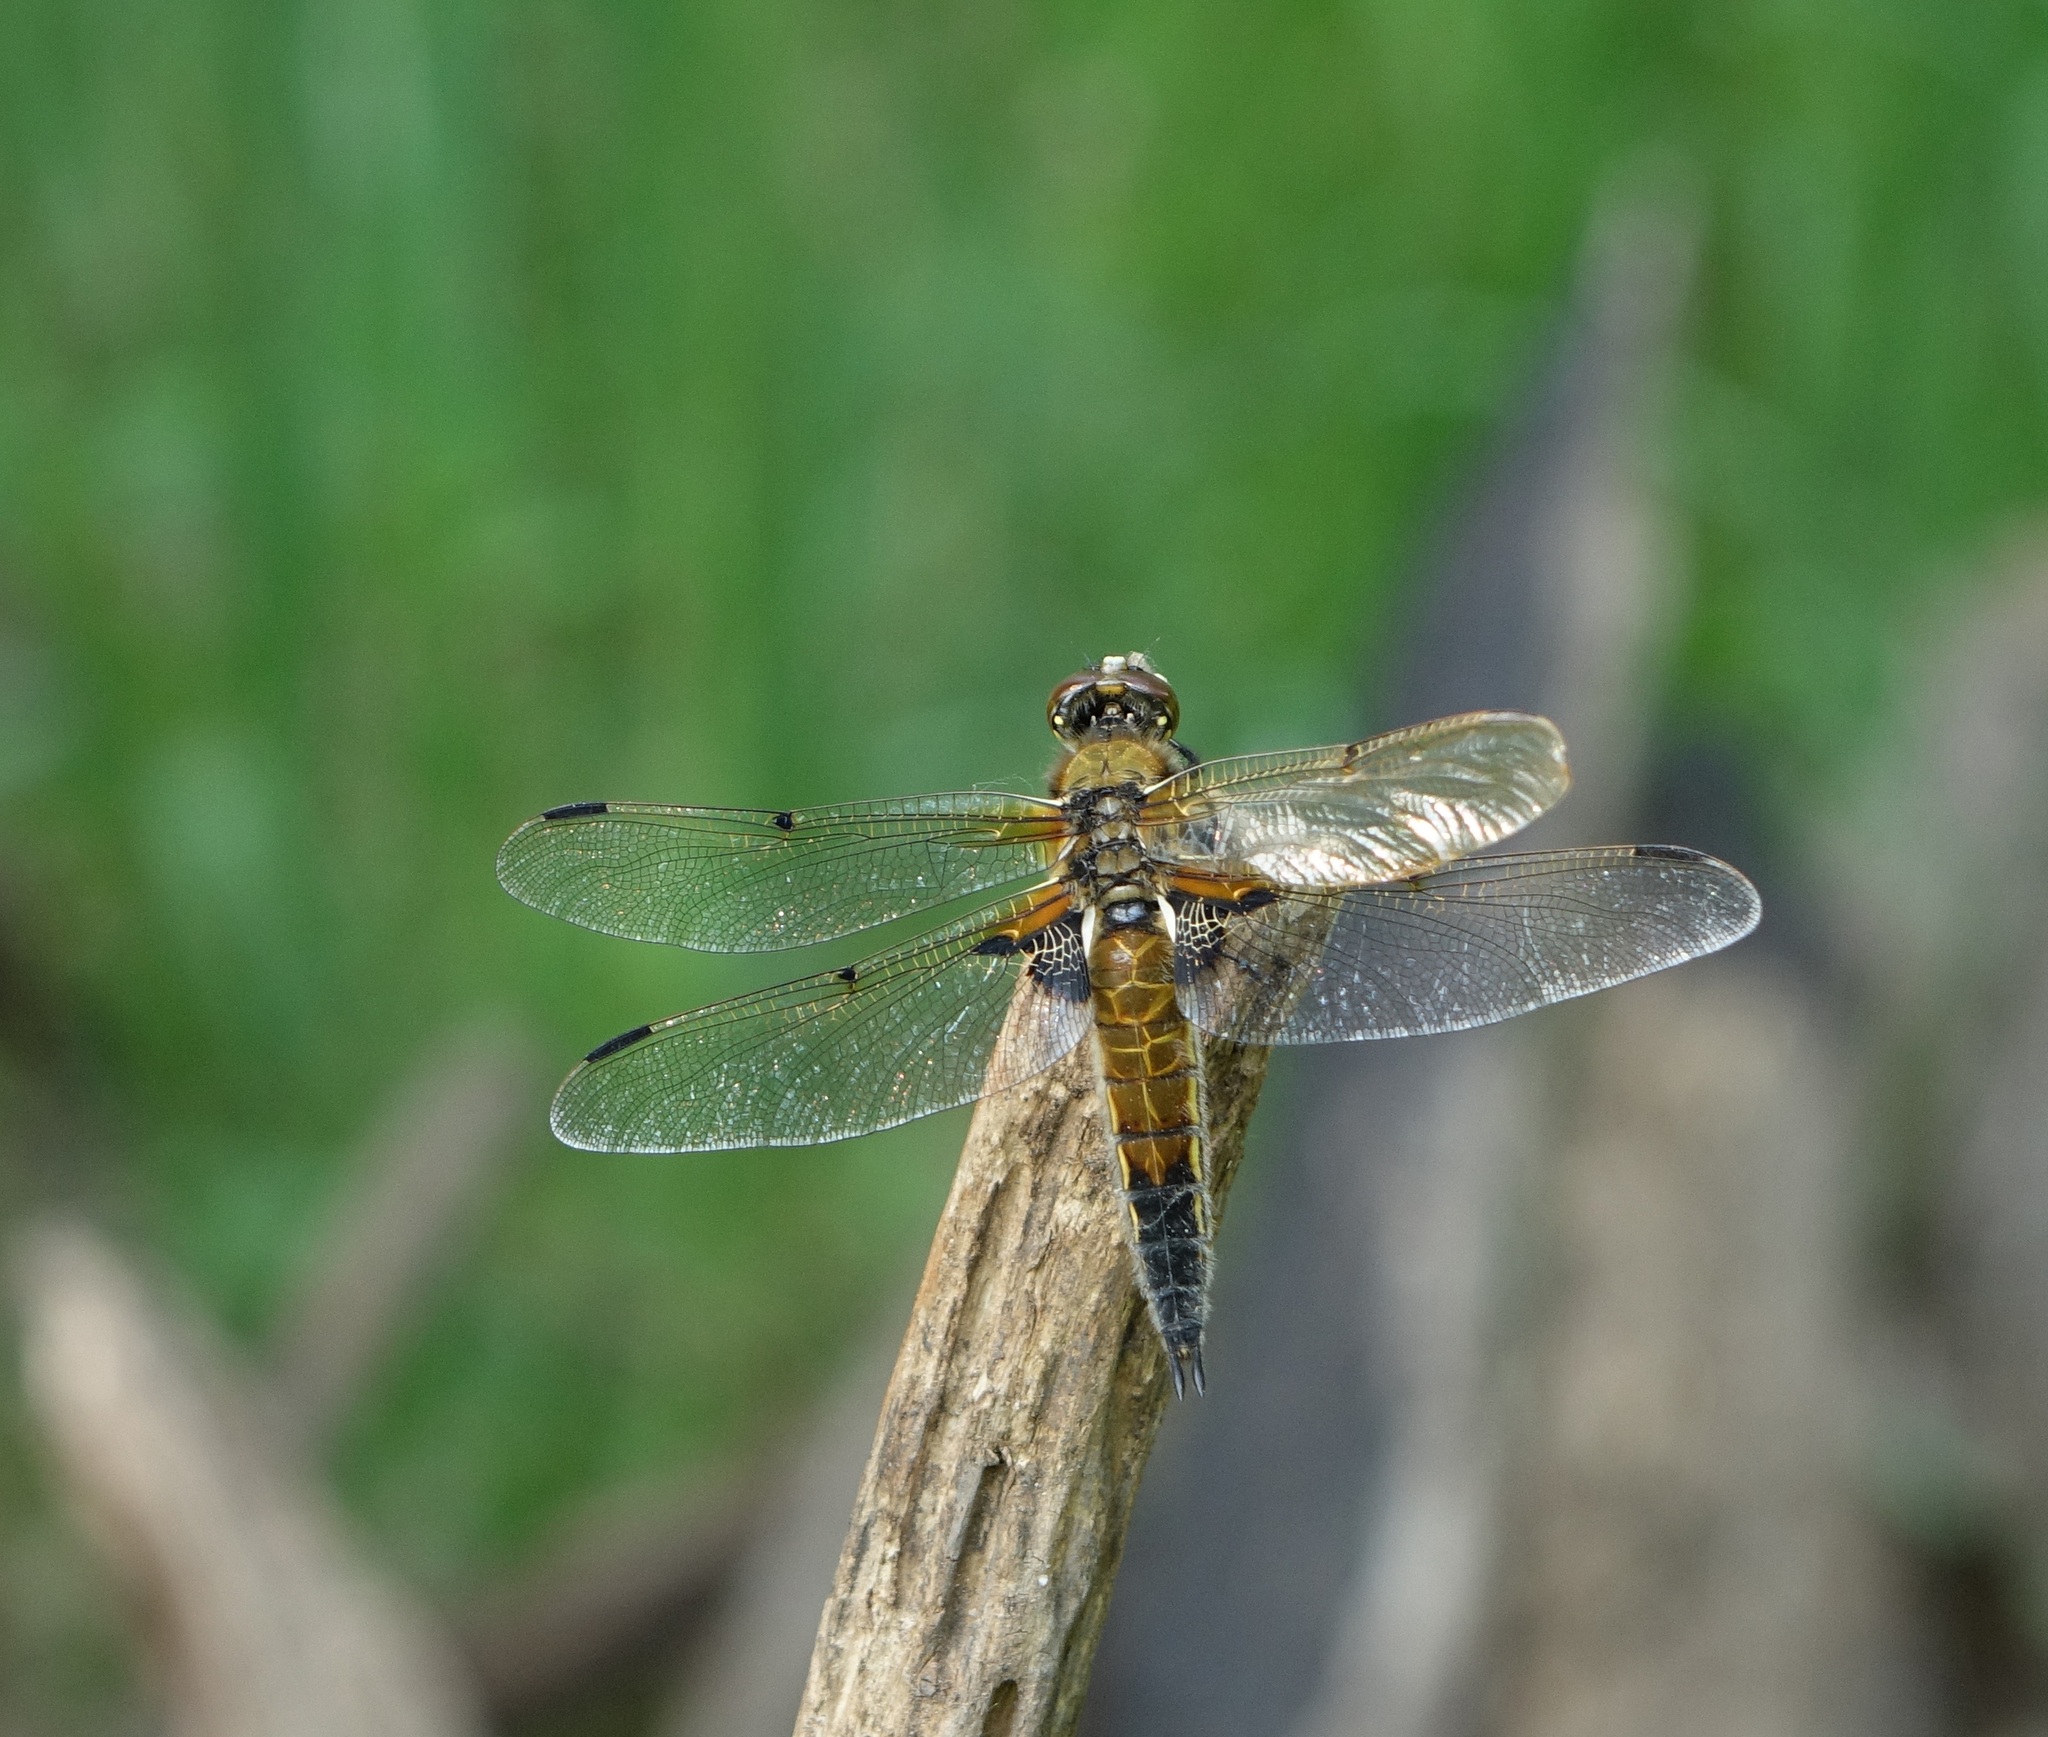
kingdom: Animalia
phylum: Arthropoda
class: Insecta
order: Odonata
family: Libellulidae
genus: Libellula
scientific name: Libellula quadrimaculata
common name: Four-spotted chaser
